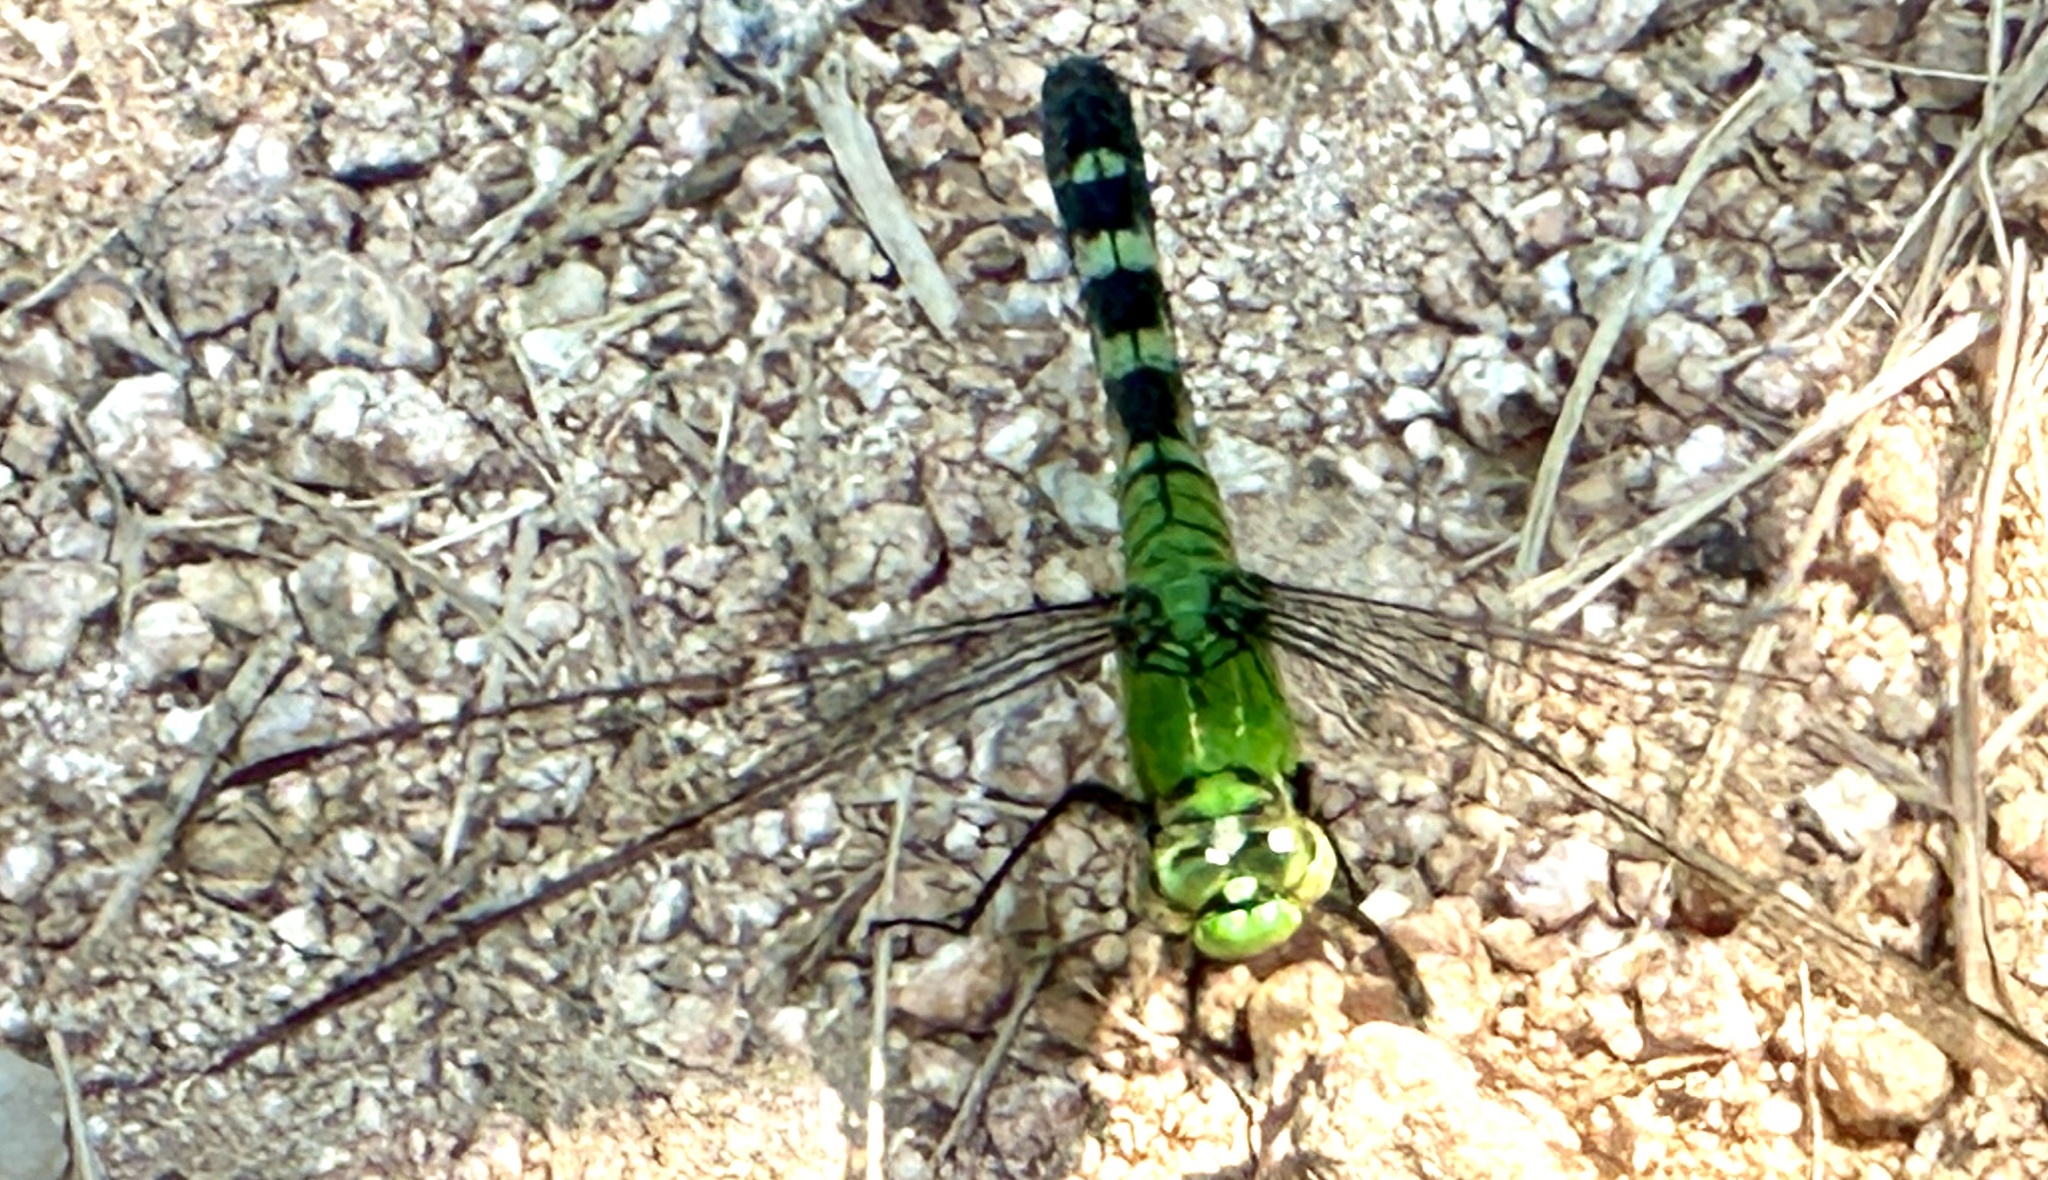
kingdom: Animalia
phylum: Arthropoda
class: Insecta
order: Odonata
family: Libellulidae
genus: Erythemis
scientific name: Erythemis simplicicollis
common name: Eastern pondhawk
